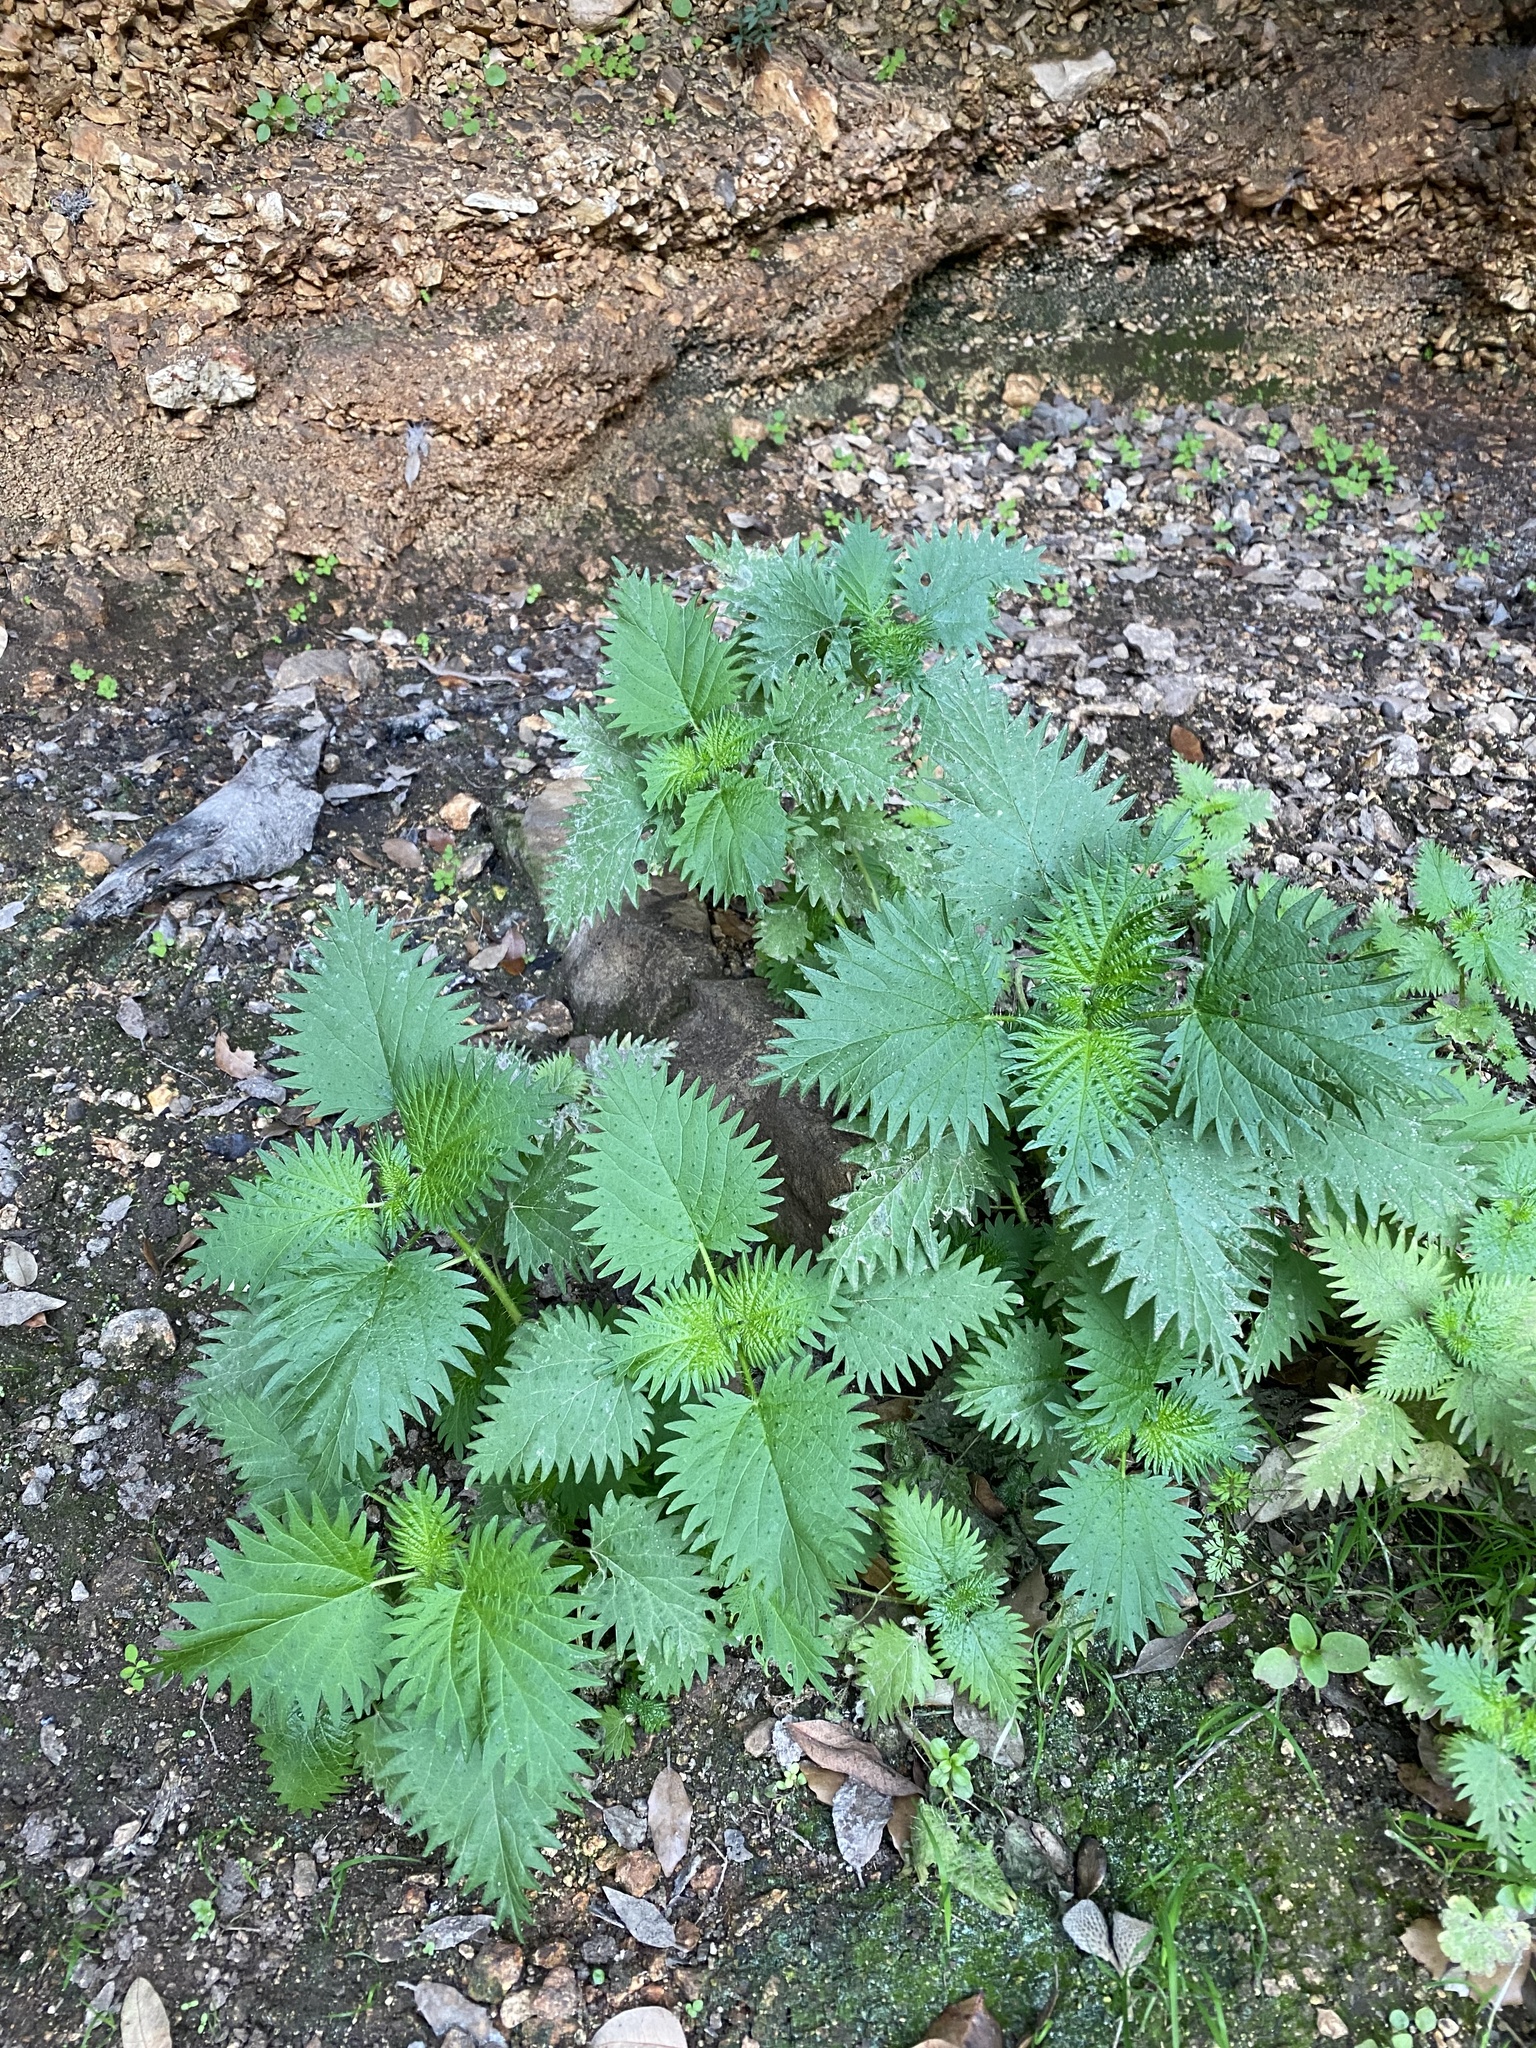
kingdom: Plantae
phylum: Tracheophyta
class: Magnoliopsida
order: Rosales
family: Urticaceae
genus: Urtica
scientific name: Urtica atrovirens
